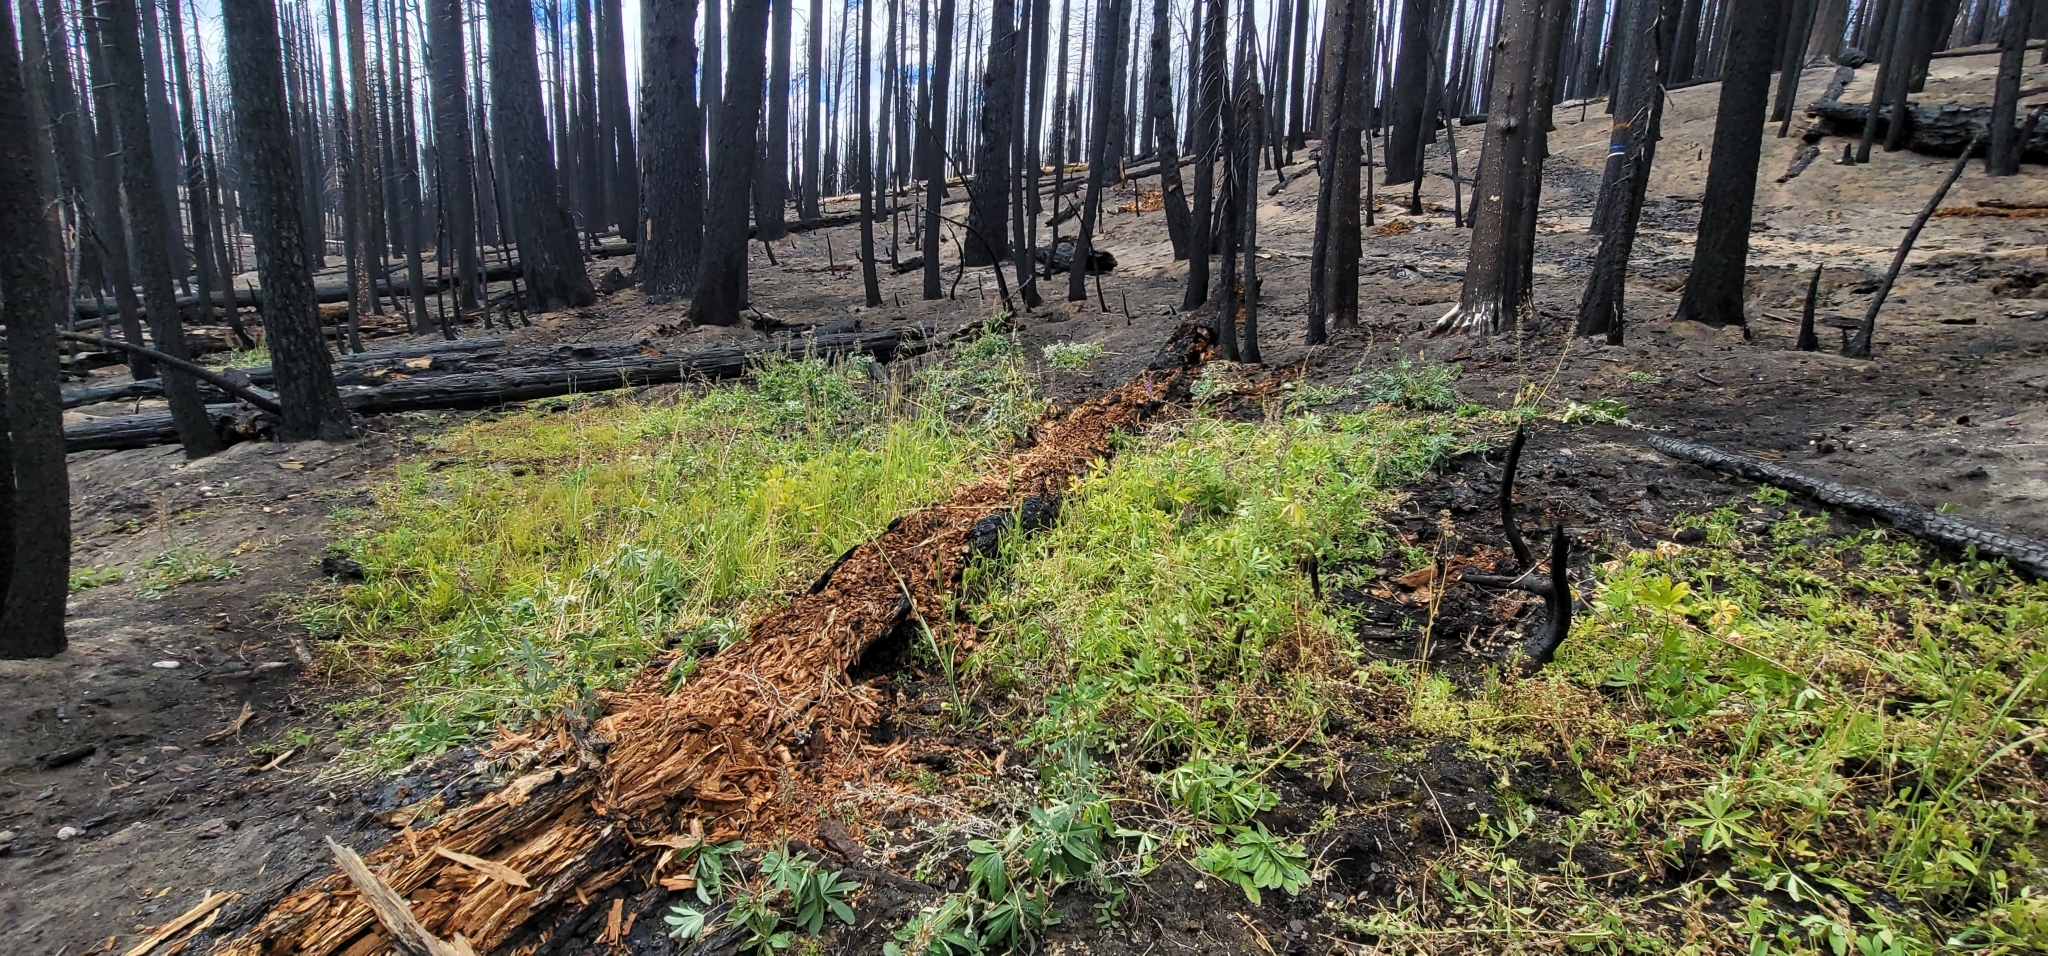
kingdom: Plantae
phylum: Tracheophyta
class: Liliopsida
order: Poales
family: Poaceae
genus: Cinna
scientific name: Cinna bolanderi
